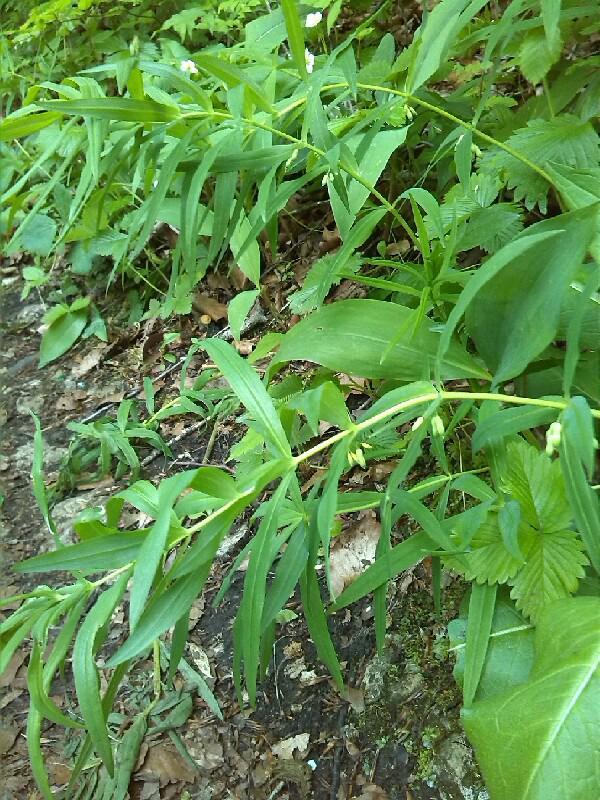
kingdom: Plantae
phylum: Tracheophyta
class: Liliopsida
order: Asparagales
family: Asparagaceae
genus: Polygonatum
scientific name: Polygonatum verticillatum
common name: Whorled solomon's-seal
